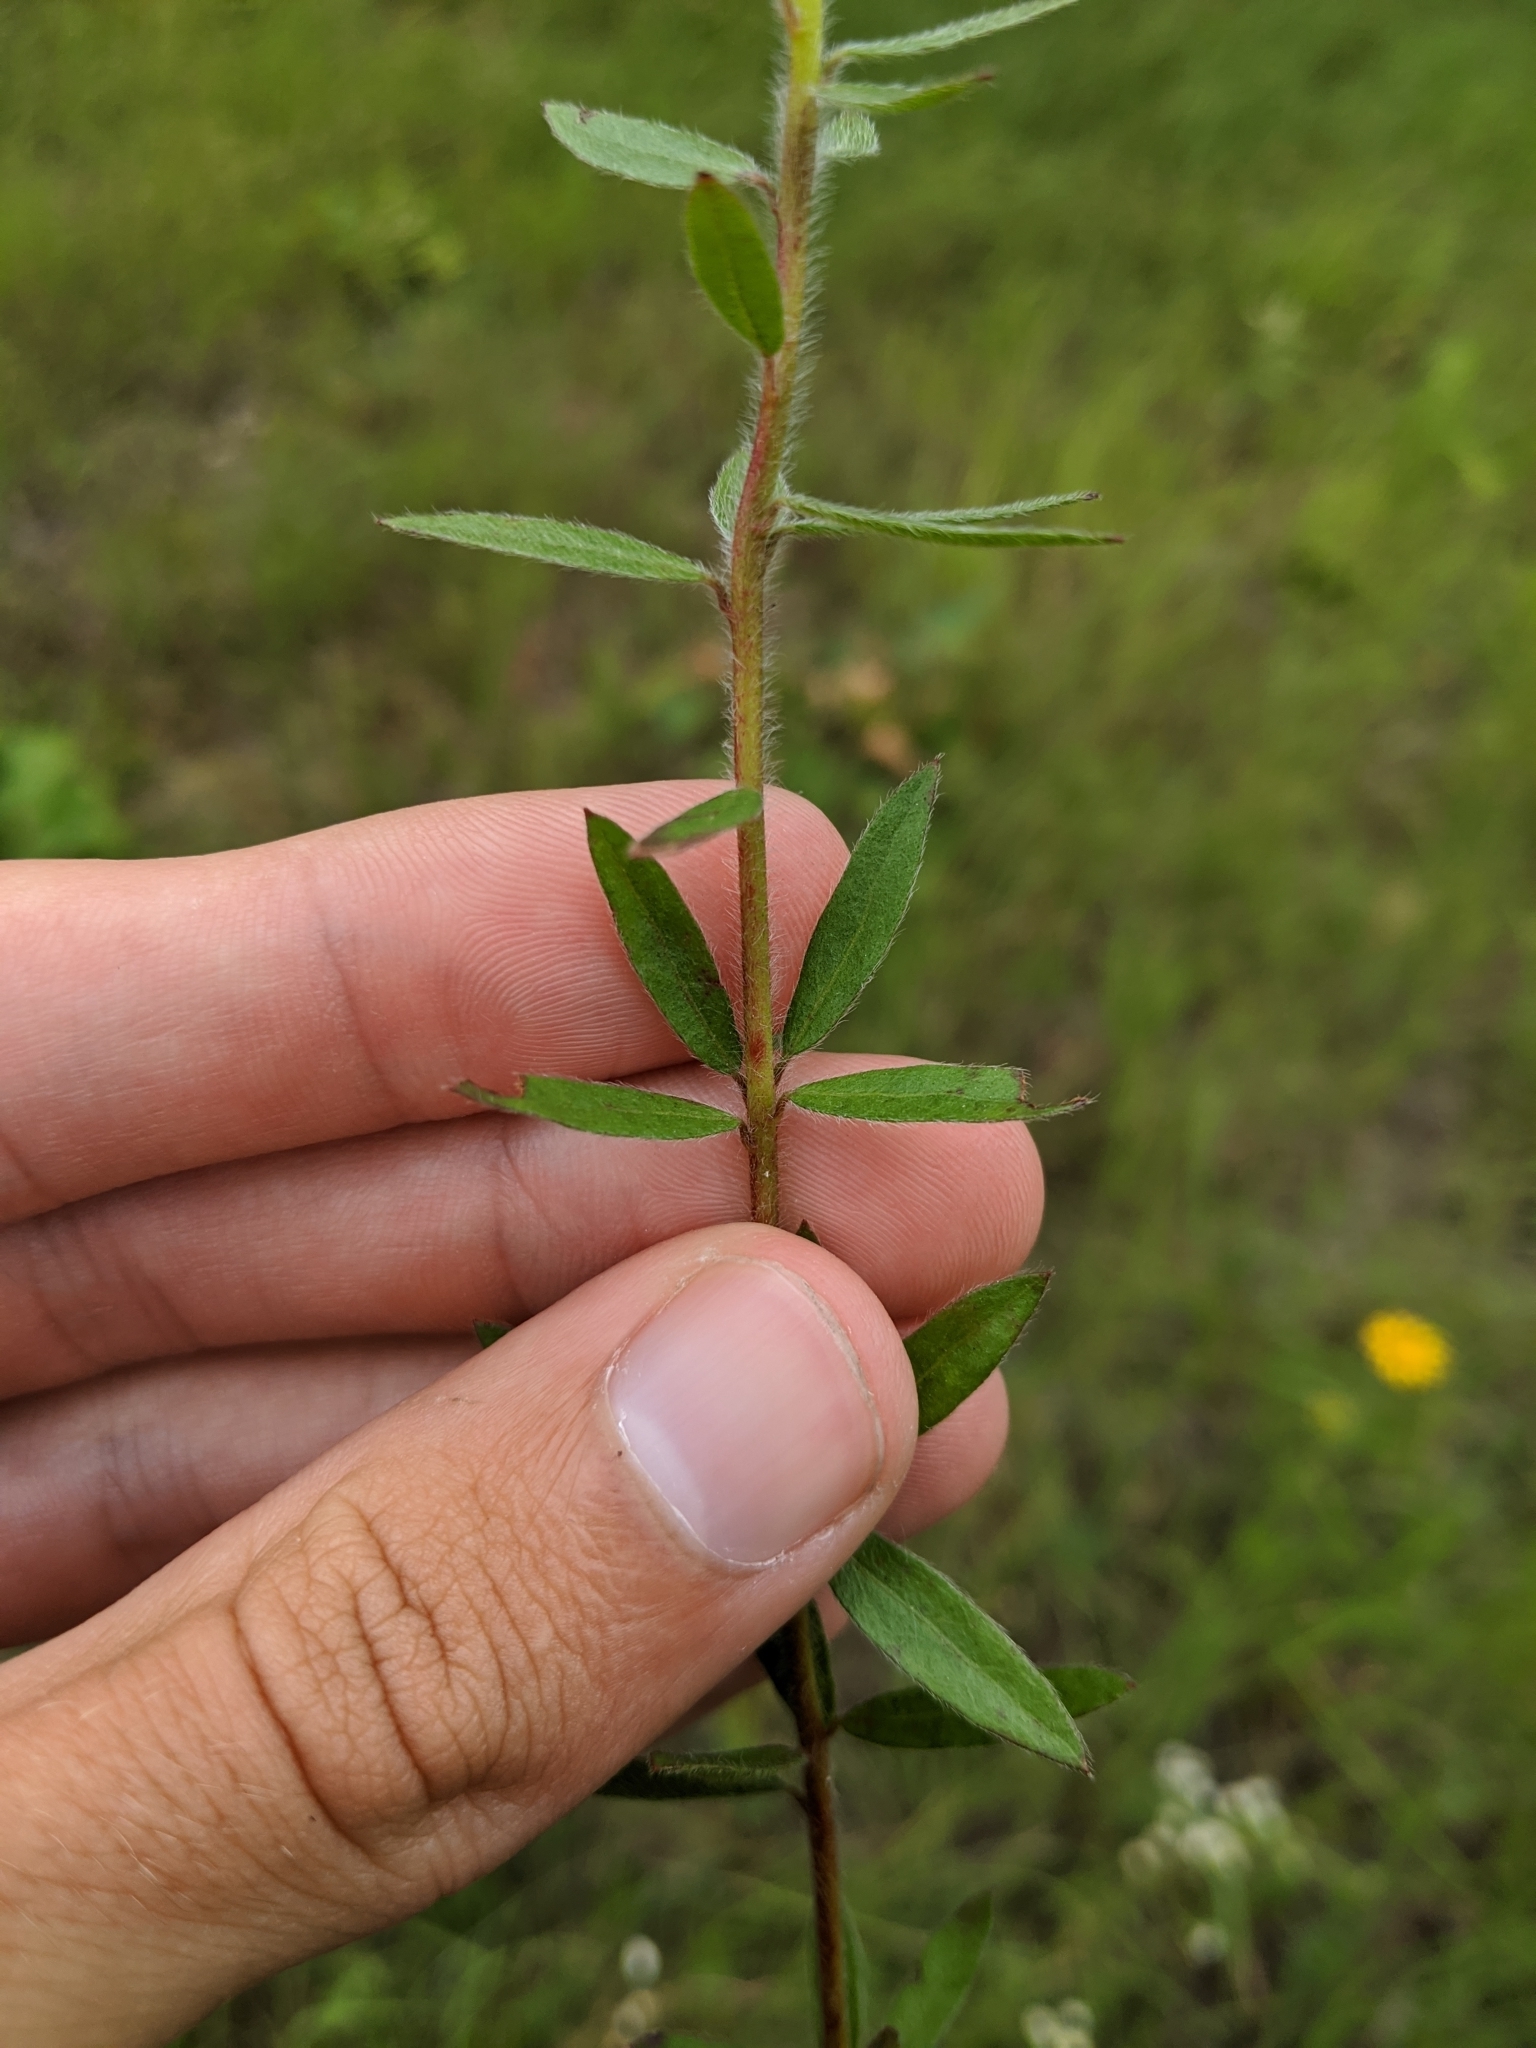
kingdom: Plantae
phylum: Tracheophyta
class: Magnoliopsida
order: Malvales
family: Cistaceae
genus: Lechea
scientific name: Lechea mucronata
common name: Hairy pinweed
